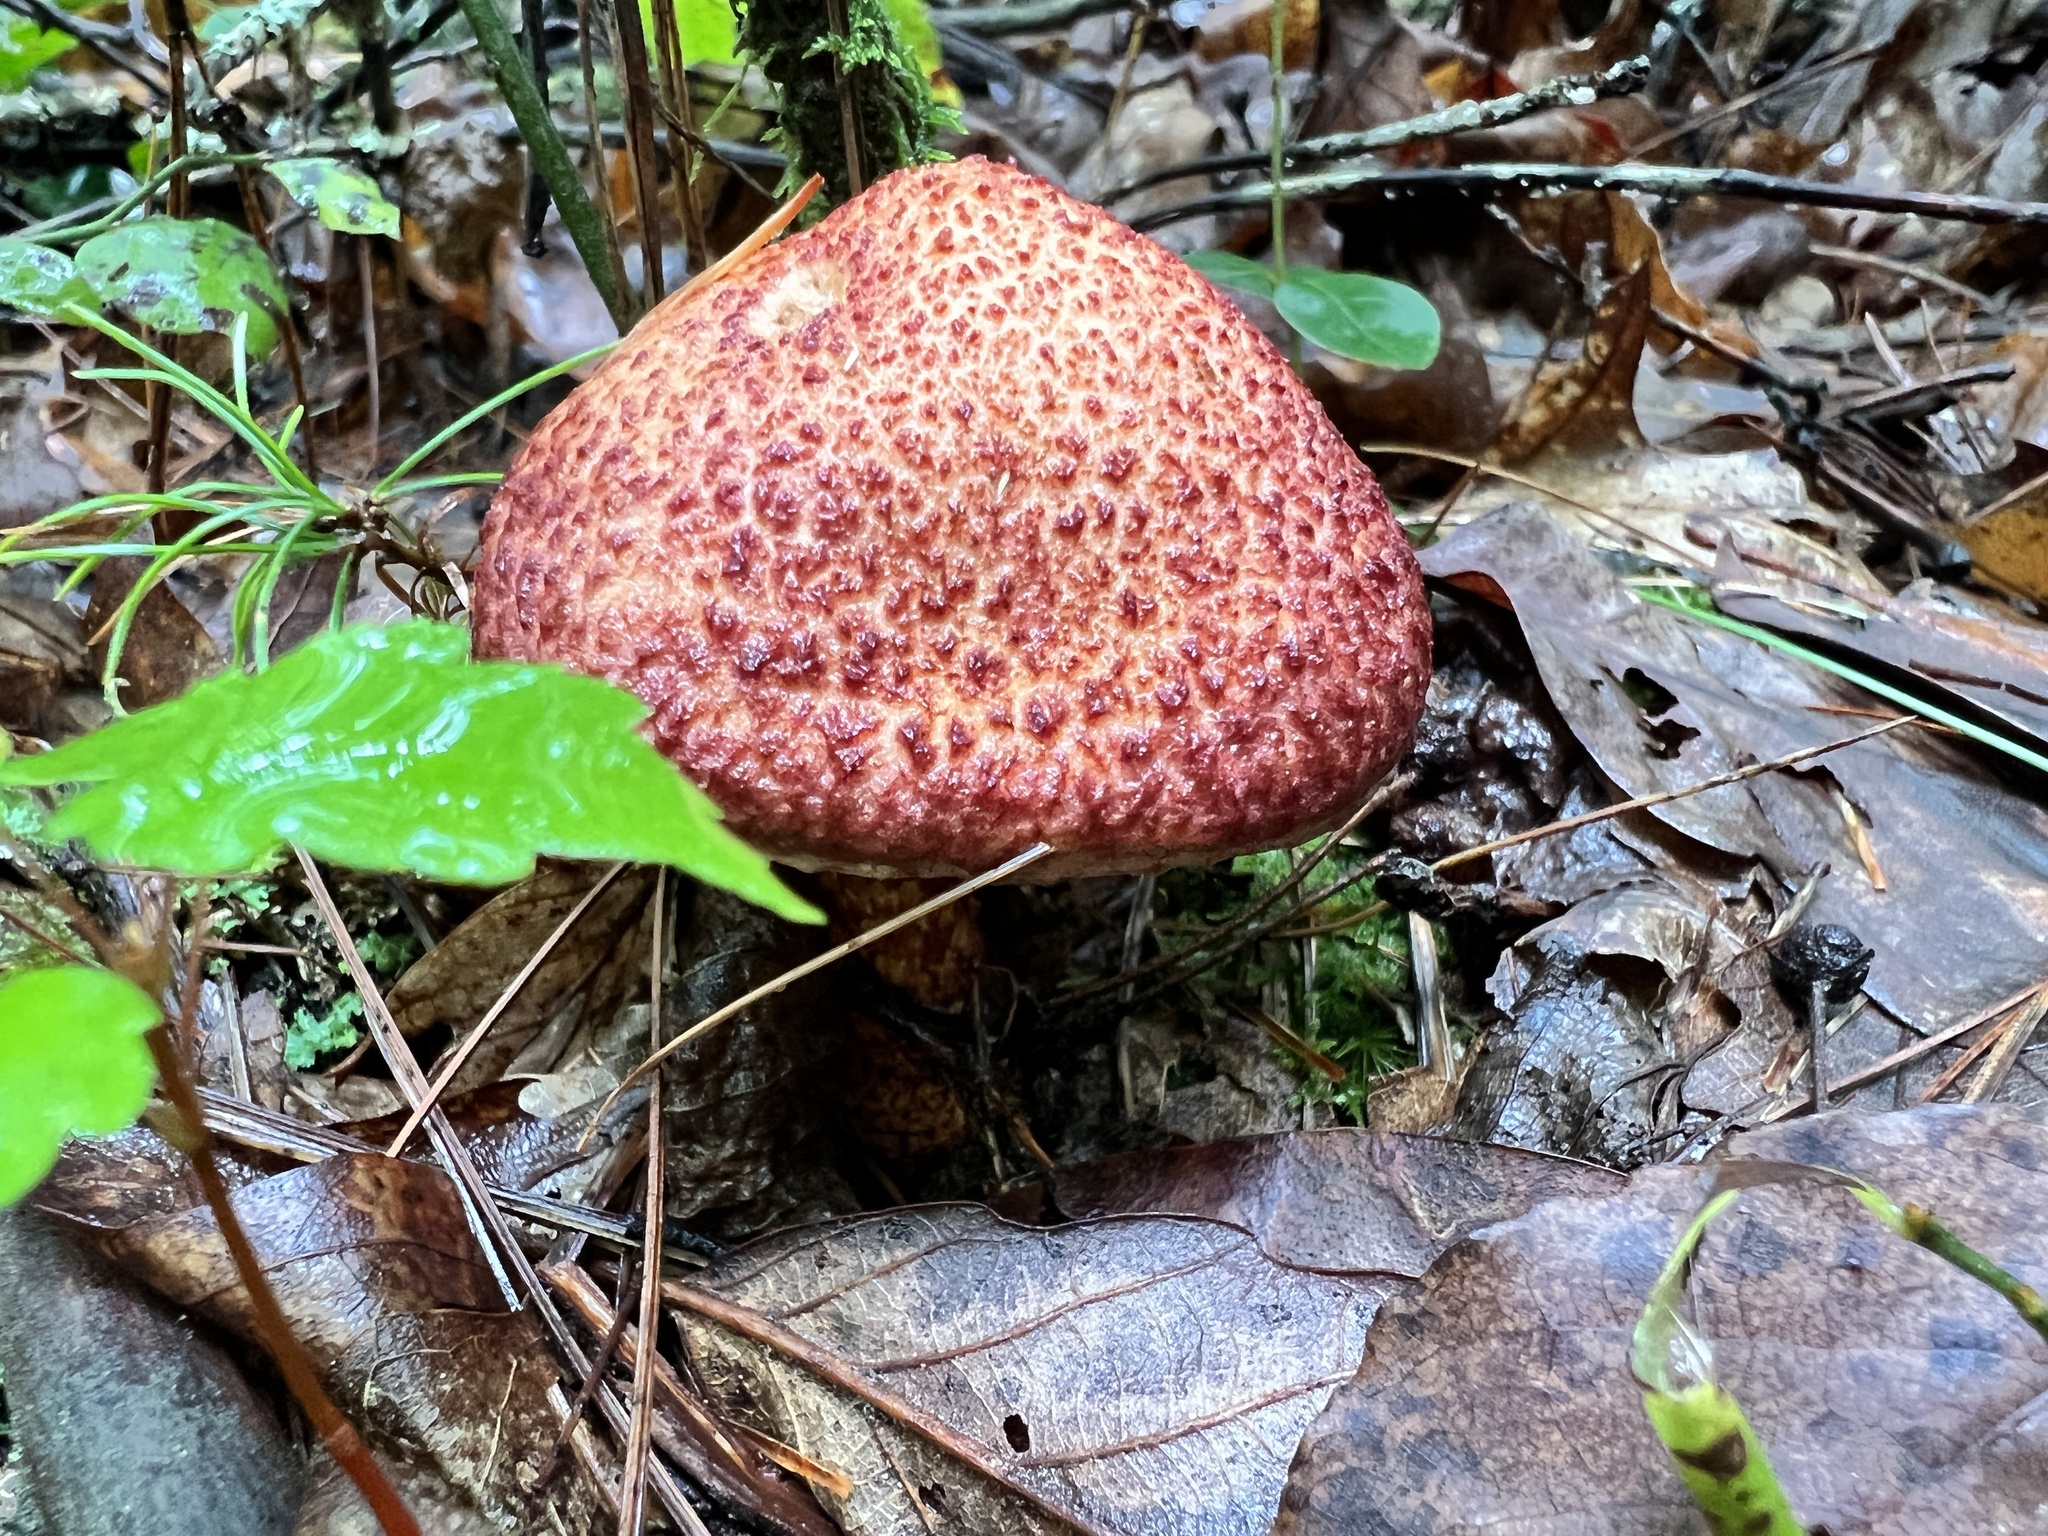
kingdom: Fungi
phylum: Basidiomycota
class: Agaricomycetes
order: Boletales
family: Suillaceae
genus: Suillus
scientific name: Suillus spraguei
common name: Painted suillus
